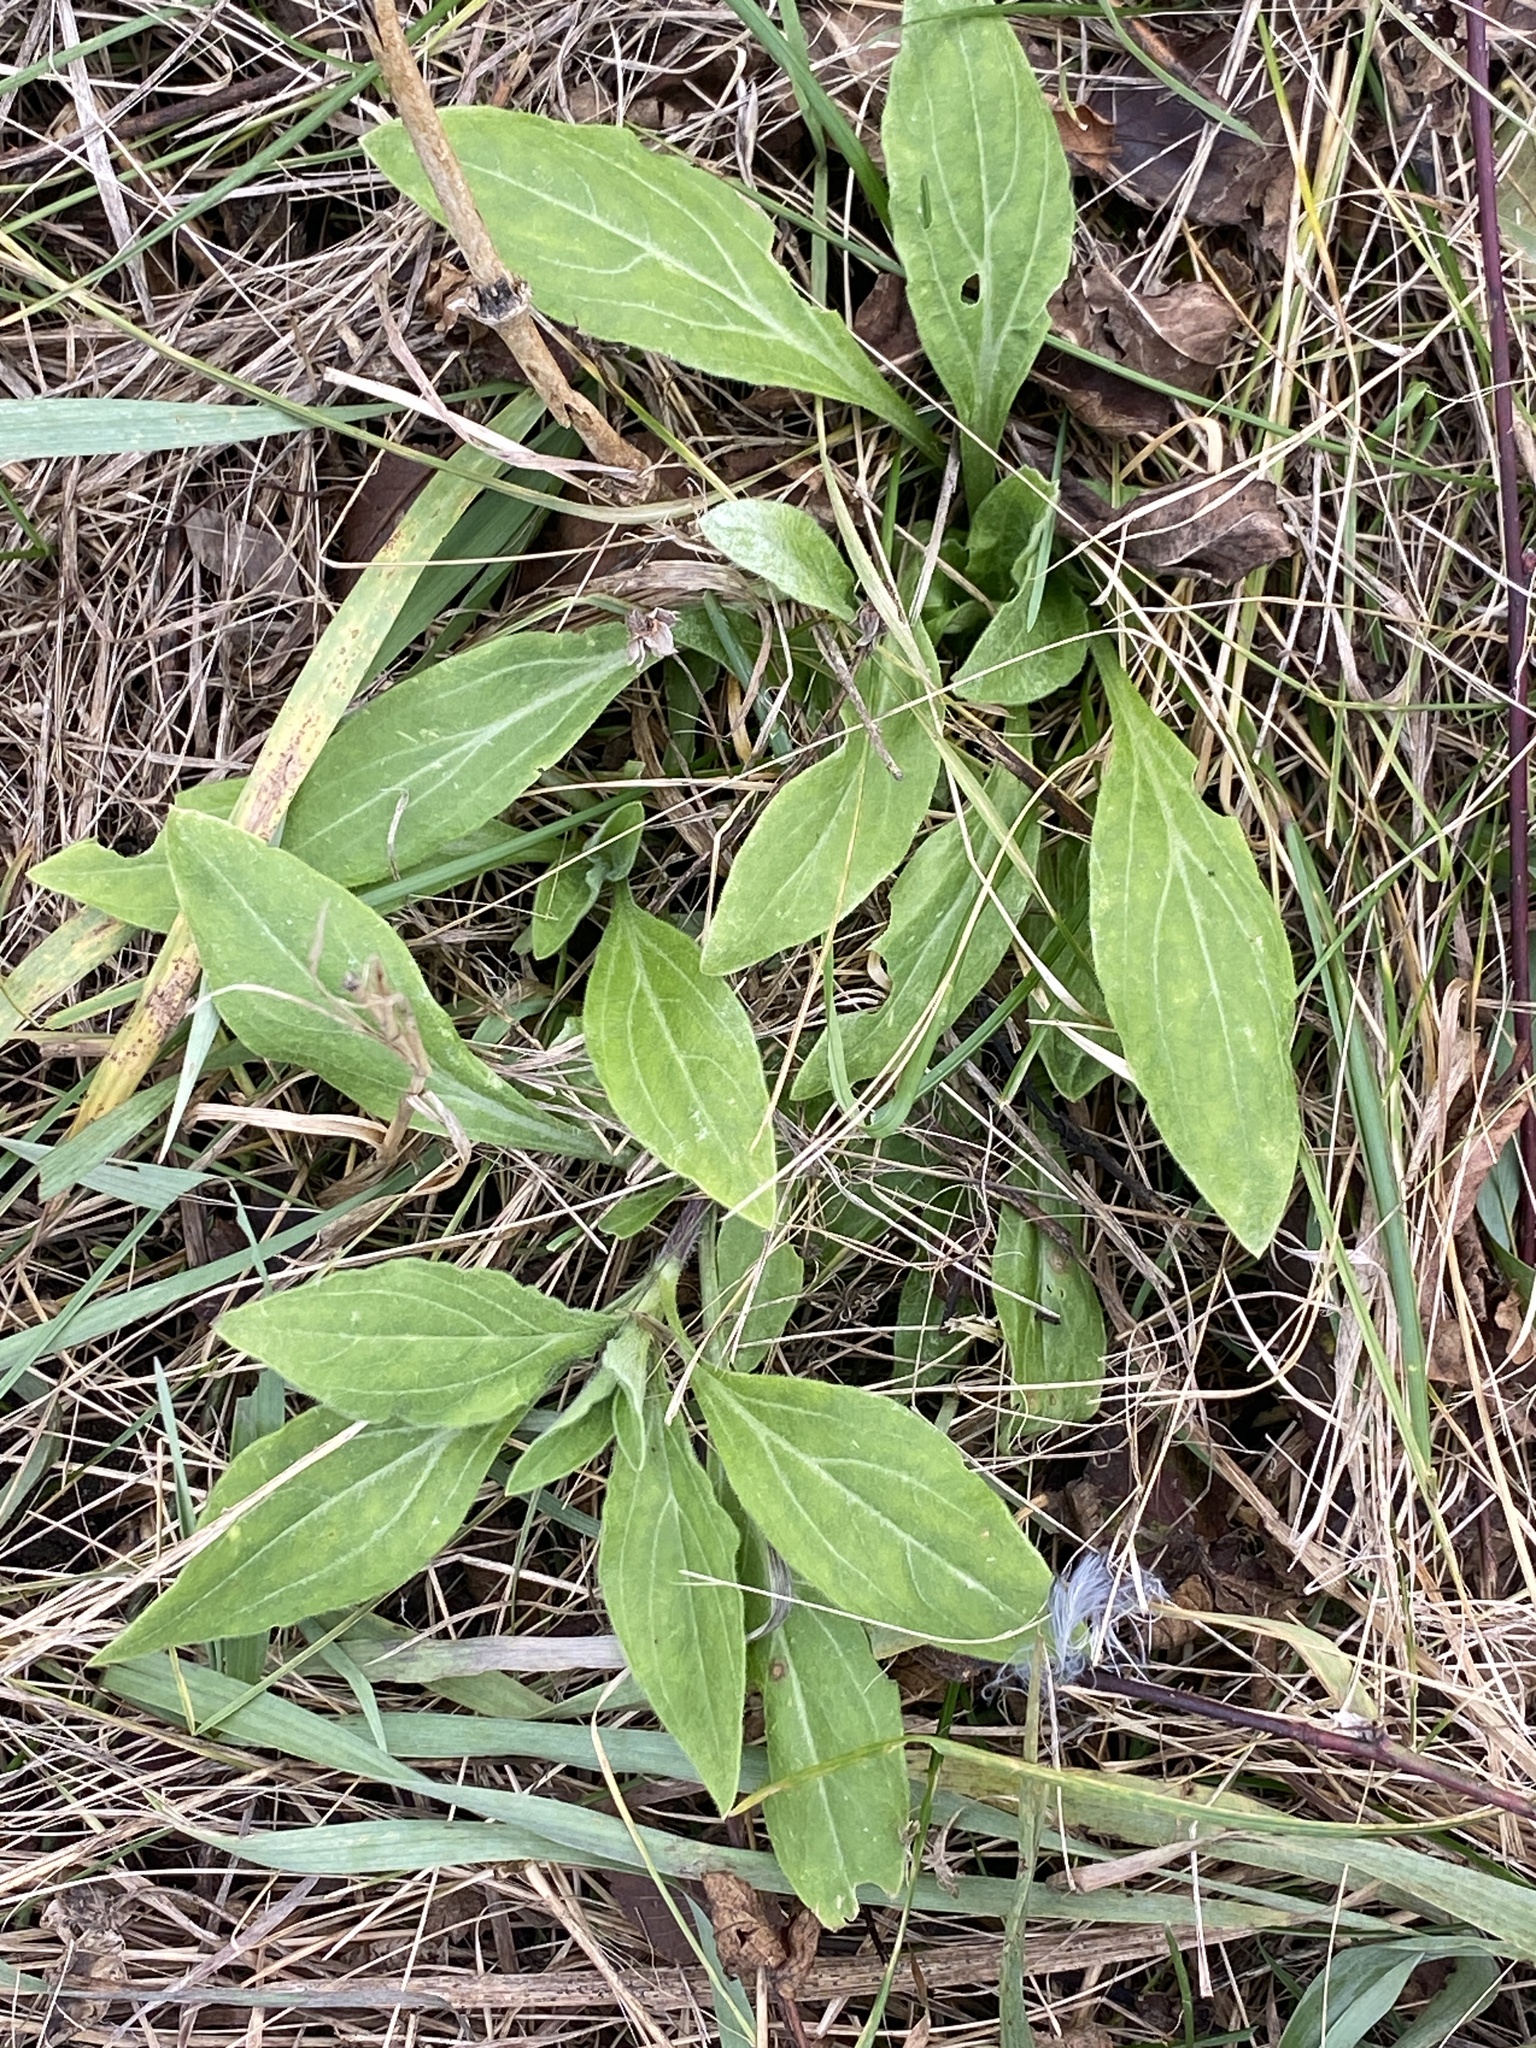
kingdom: Plantae
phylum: Tracheophyta
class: Magnoliopsida
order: Caryophyllales
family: Caryophyllaceae
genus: Silene
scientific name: Silene latifolia
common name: White campion
